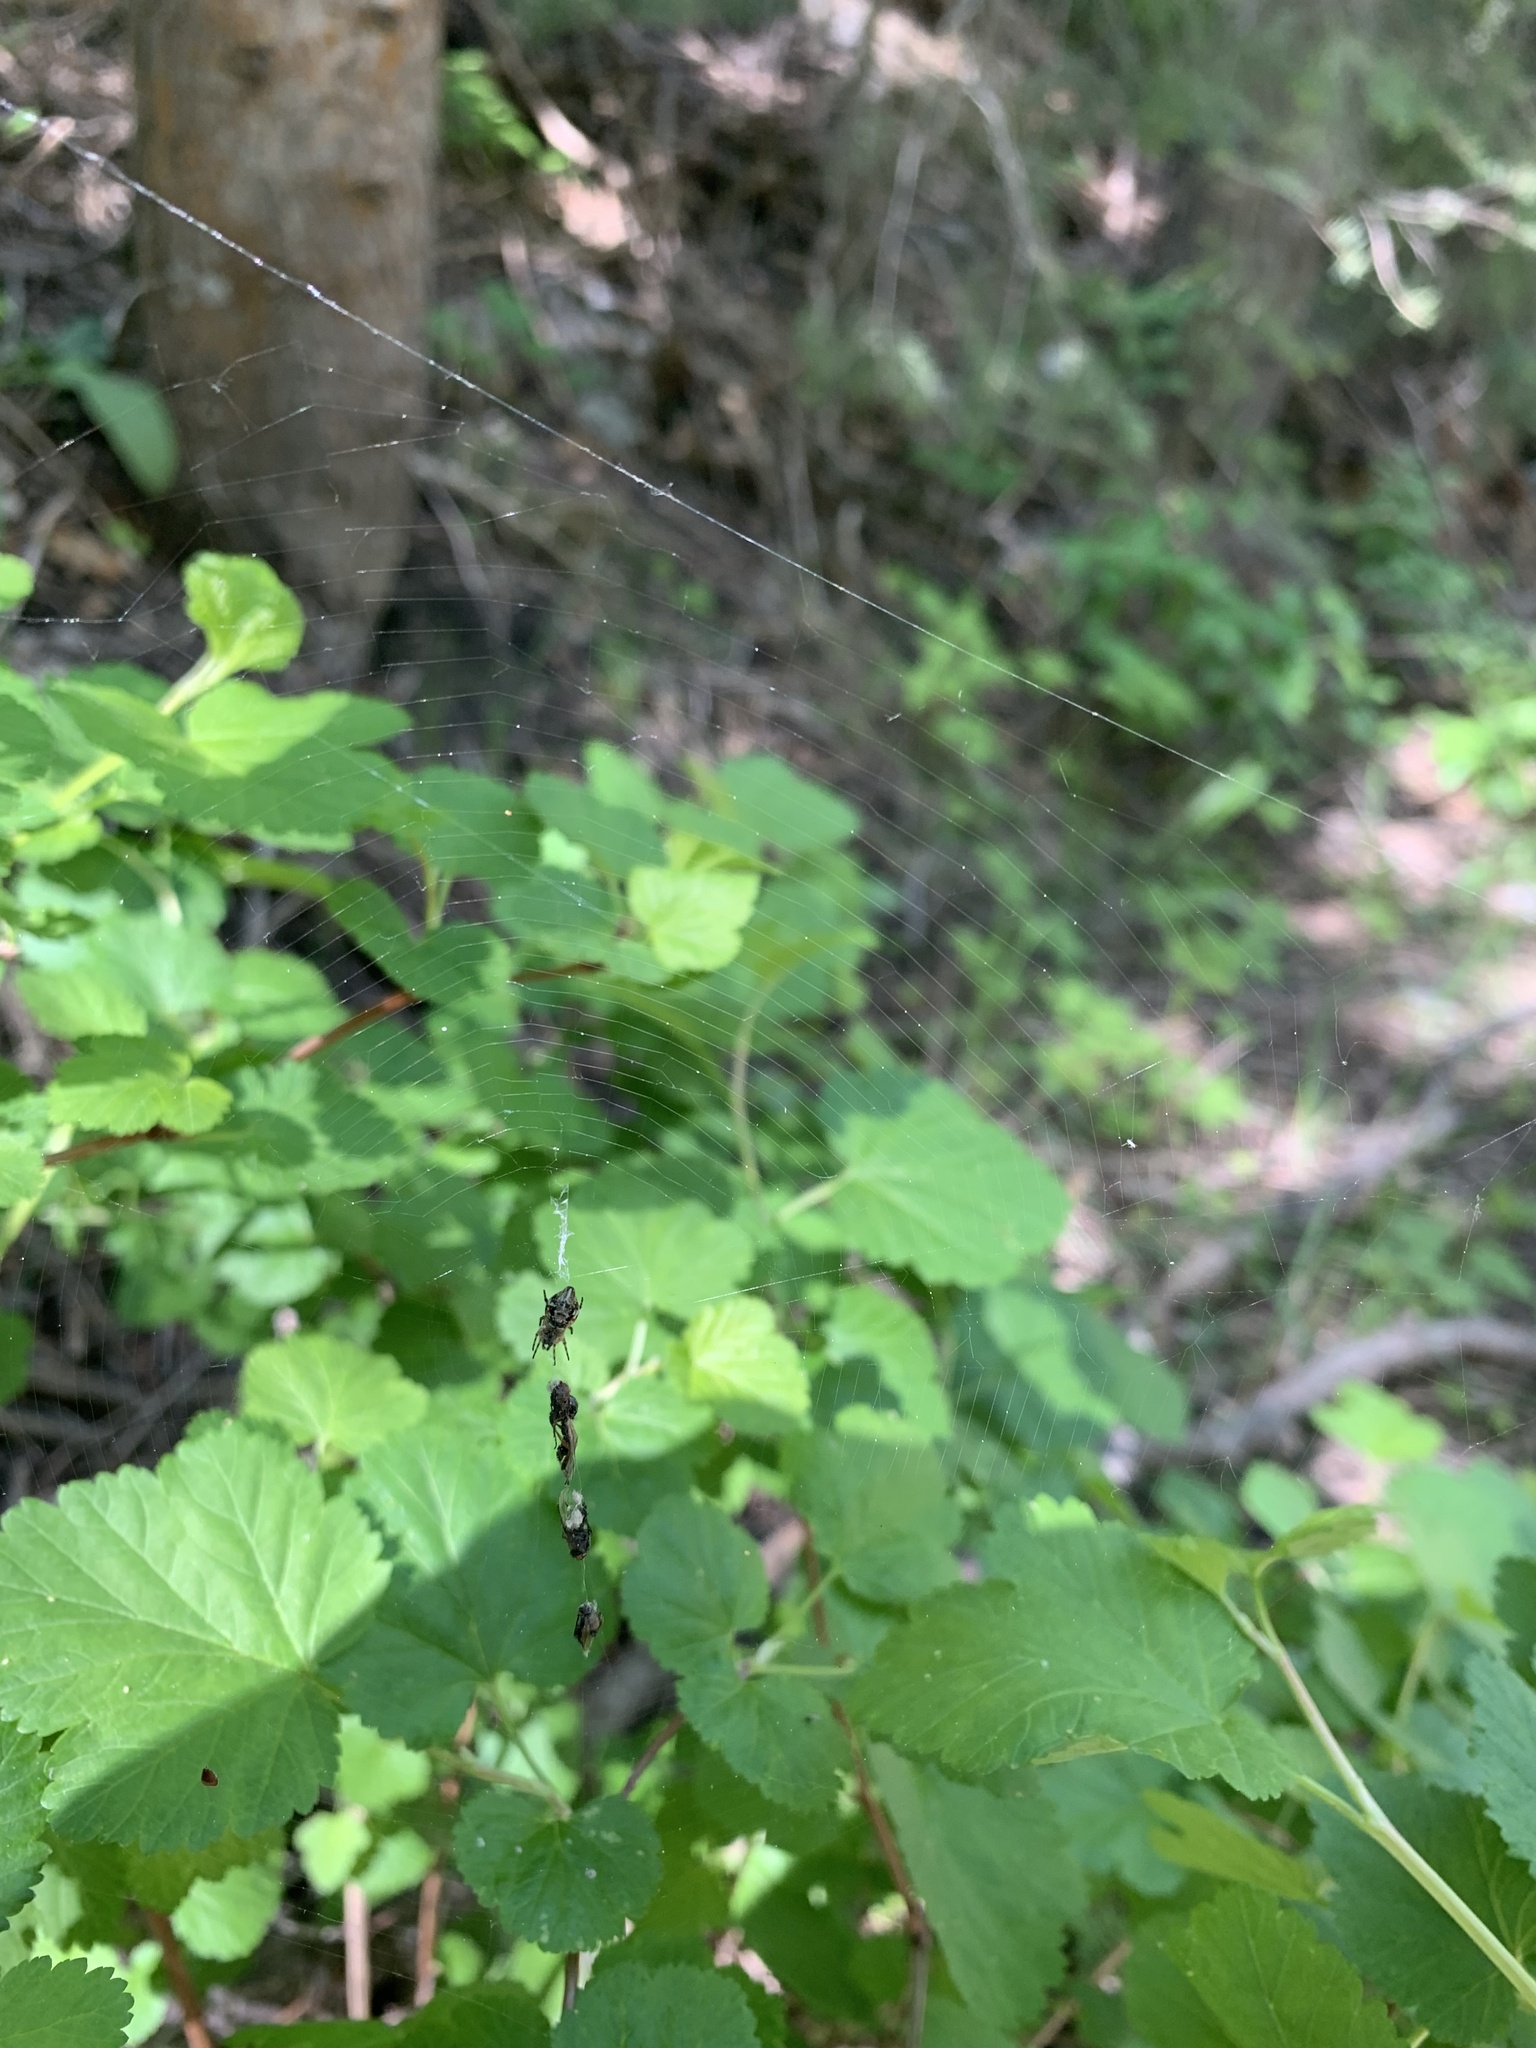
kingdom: Animalia
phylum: Arthropoda
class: Arachnida
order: Araneae
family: Araneidae
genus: Cyclosa
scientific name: Cyclosa conica
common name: Conical trashline orbweaver
